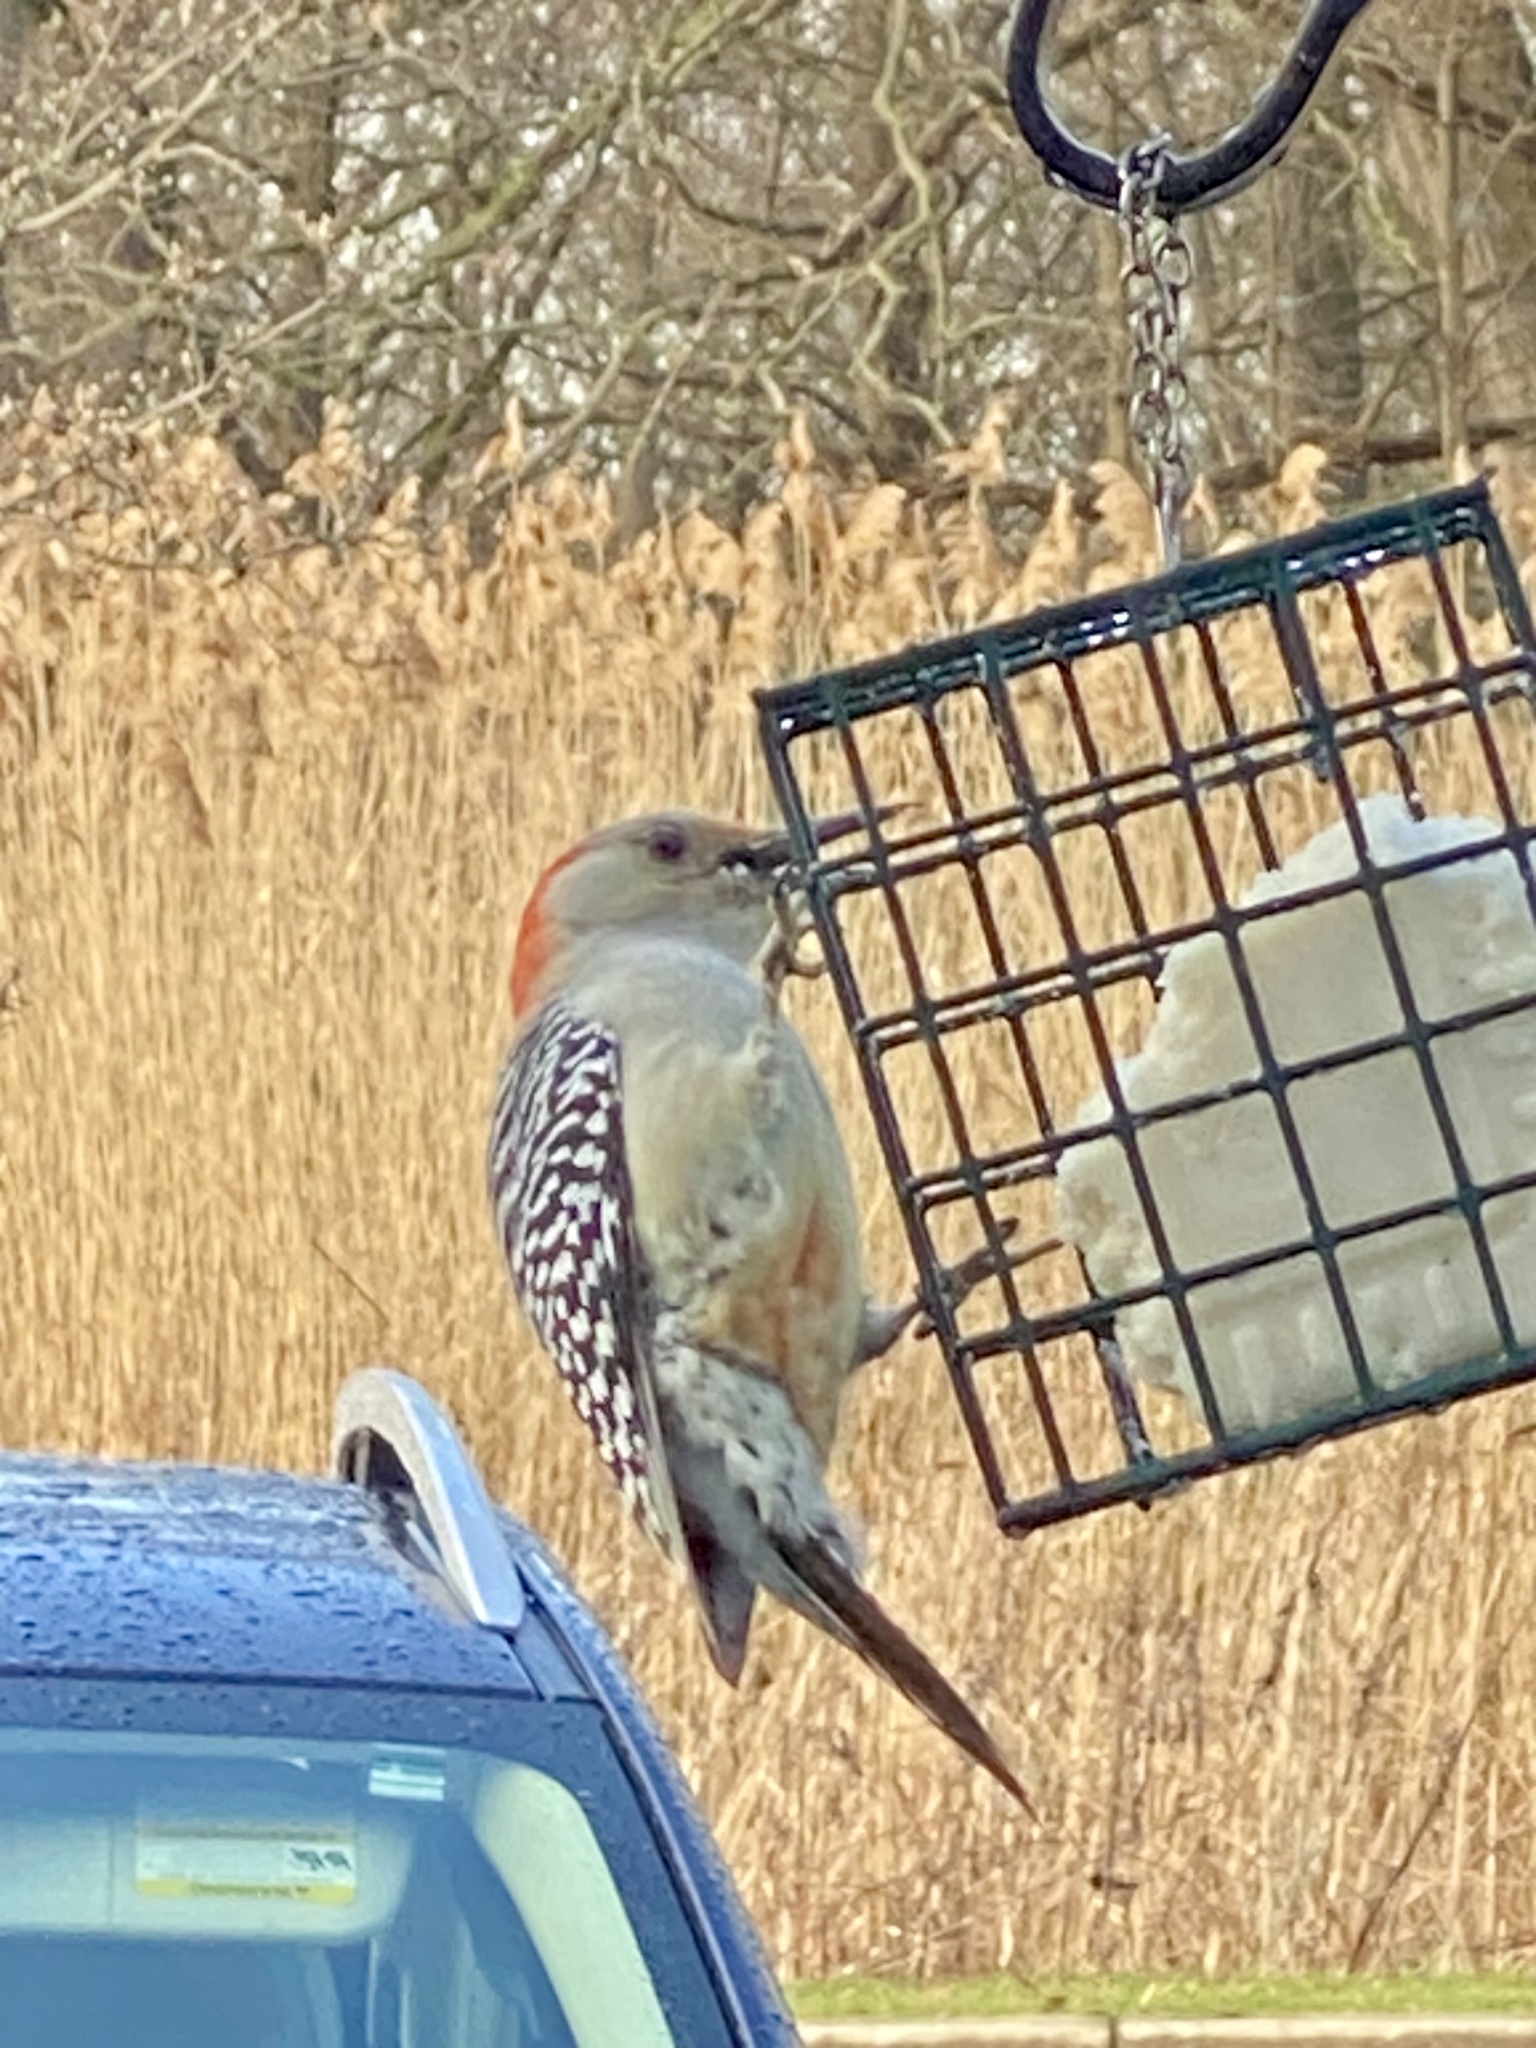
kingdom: Animalia
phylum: Chordata
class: Aves
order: Piciformes
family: Picidae
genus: Melanerpes
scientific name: Melanerpes carolinus
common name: Red-bellied woodpecker
